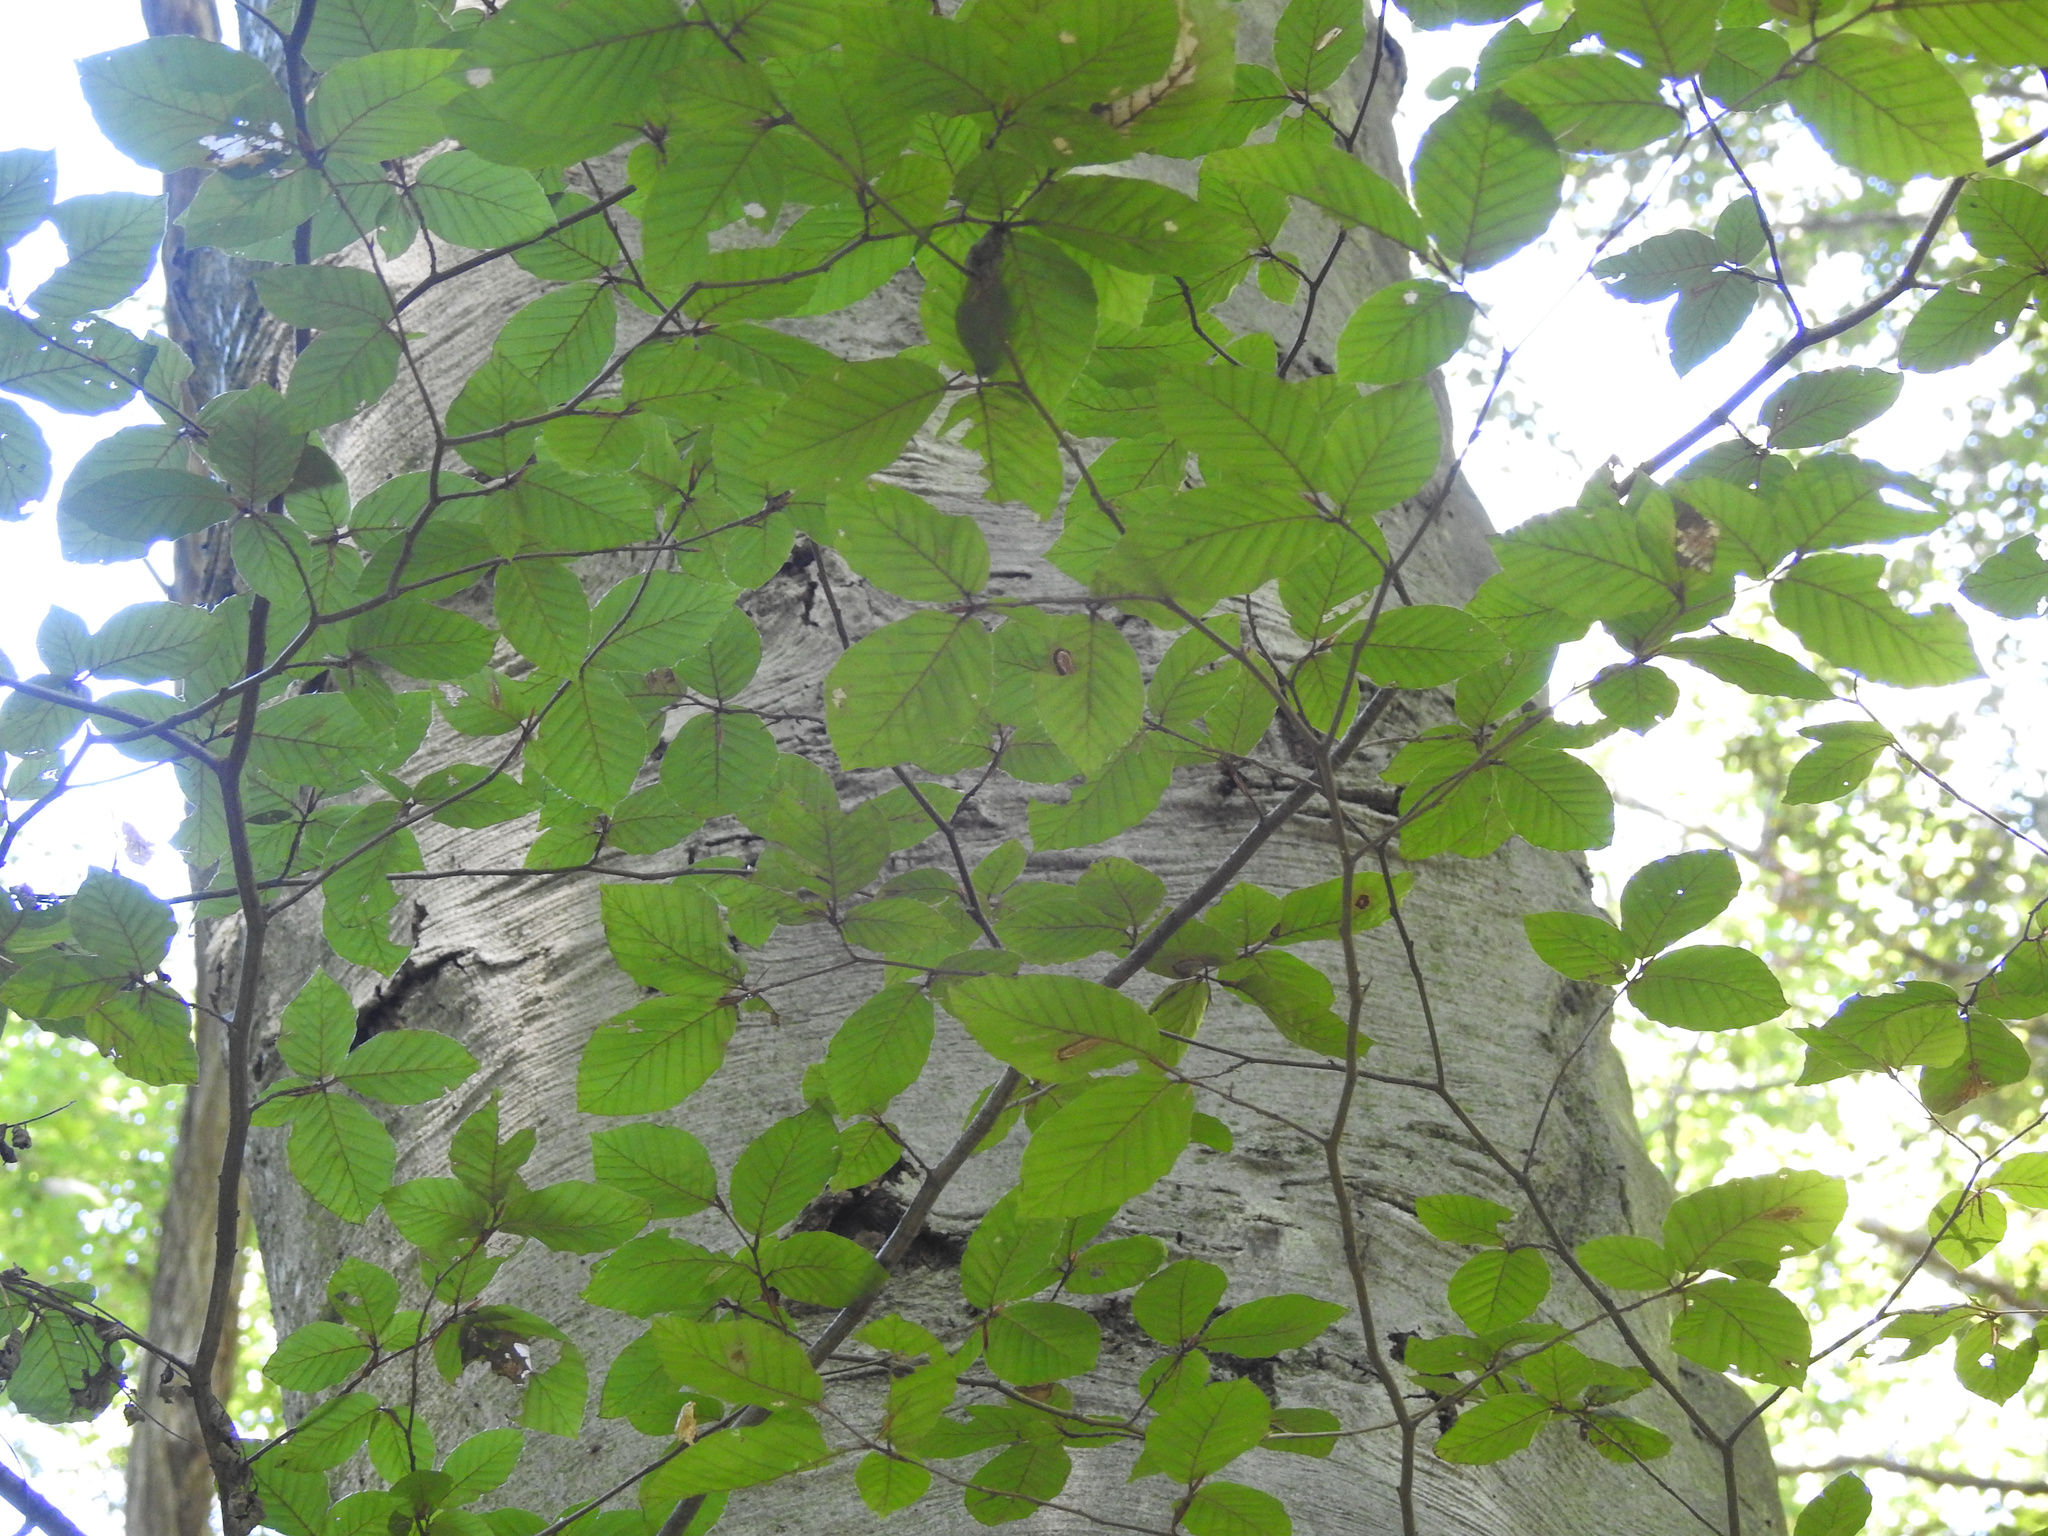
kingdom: Plantae
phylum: Tracheophyta
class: Magnoliopsida
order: Fagales
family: Fagaceae
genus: Fagus
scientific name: Fagus sylvatica
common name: Beech
